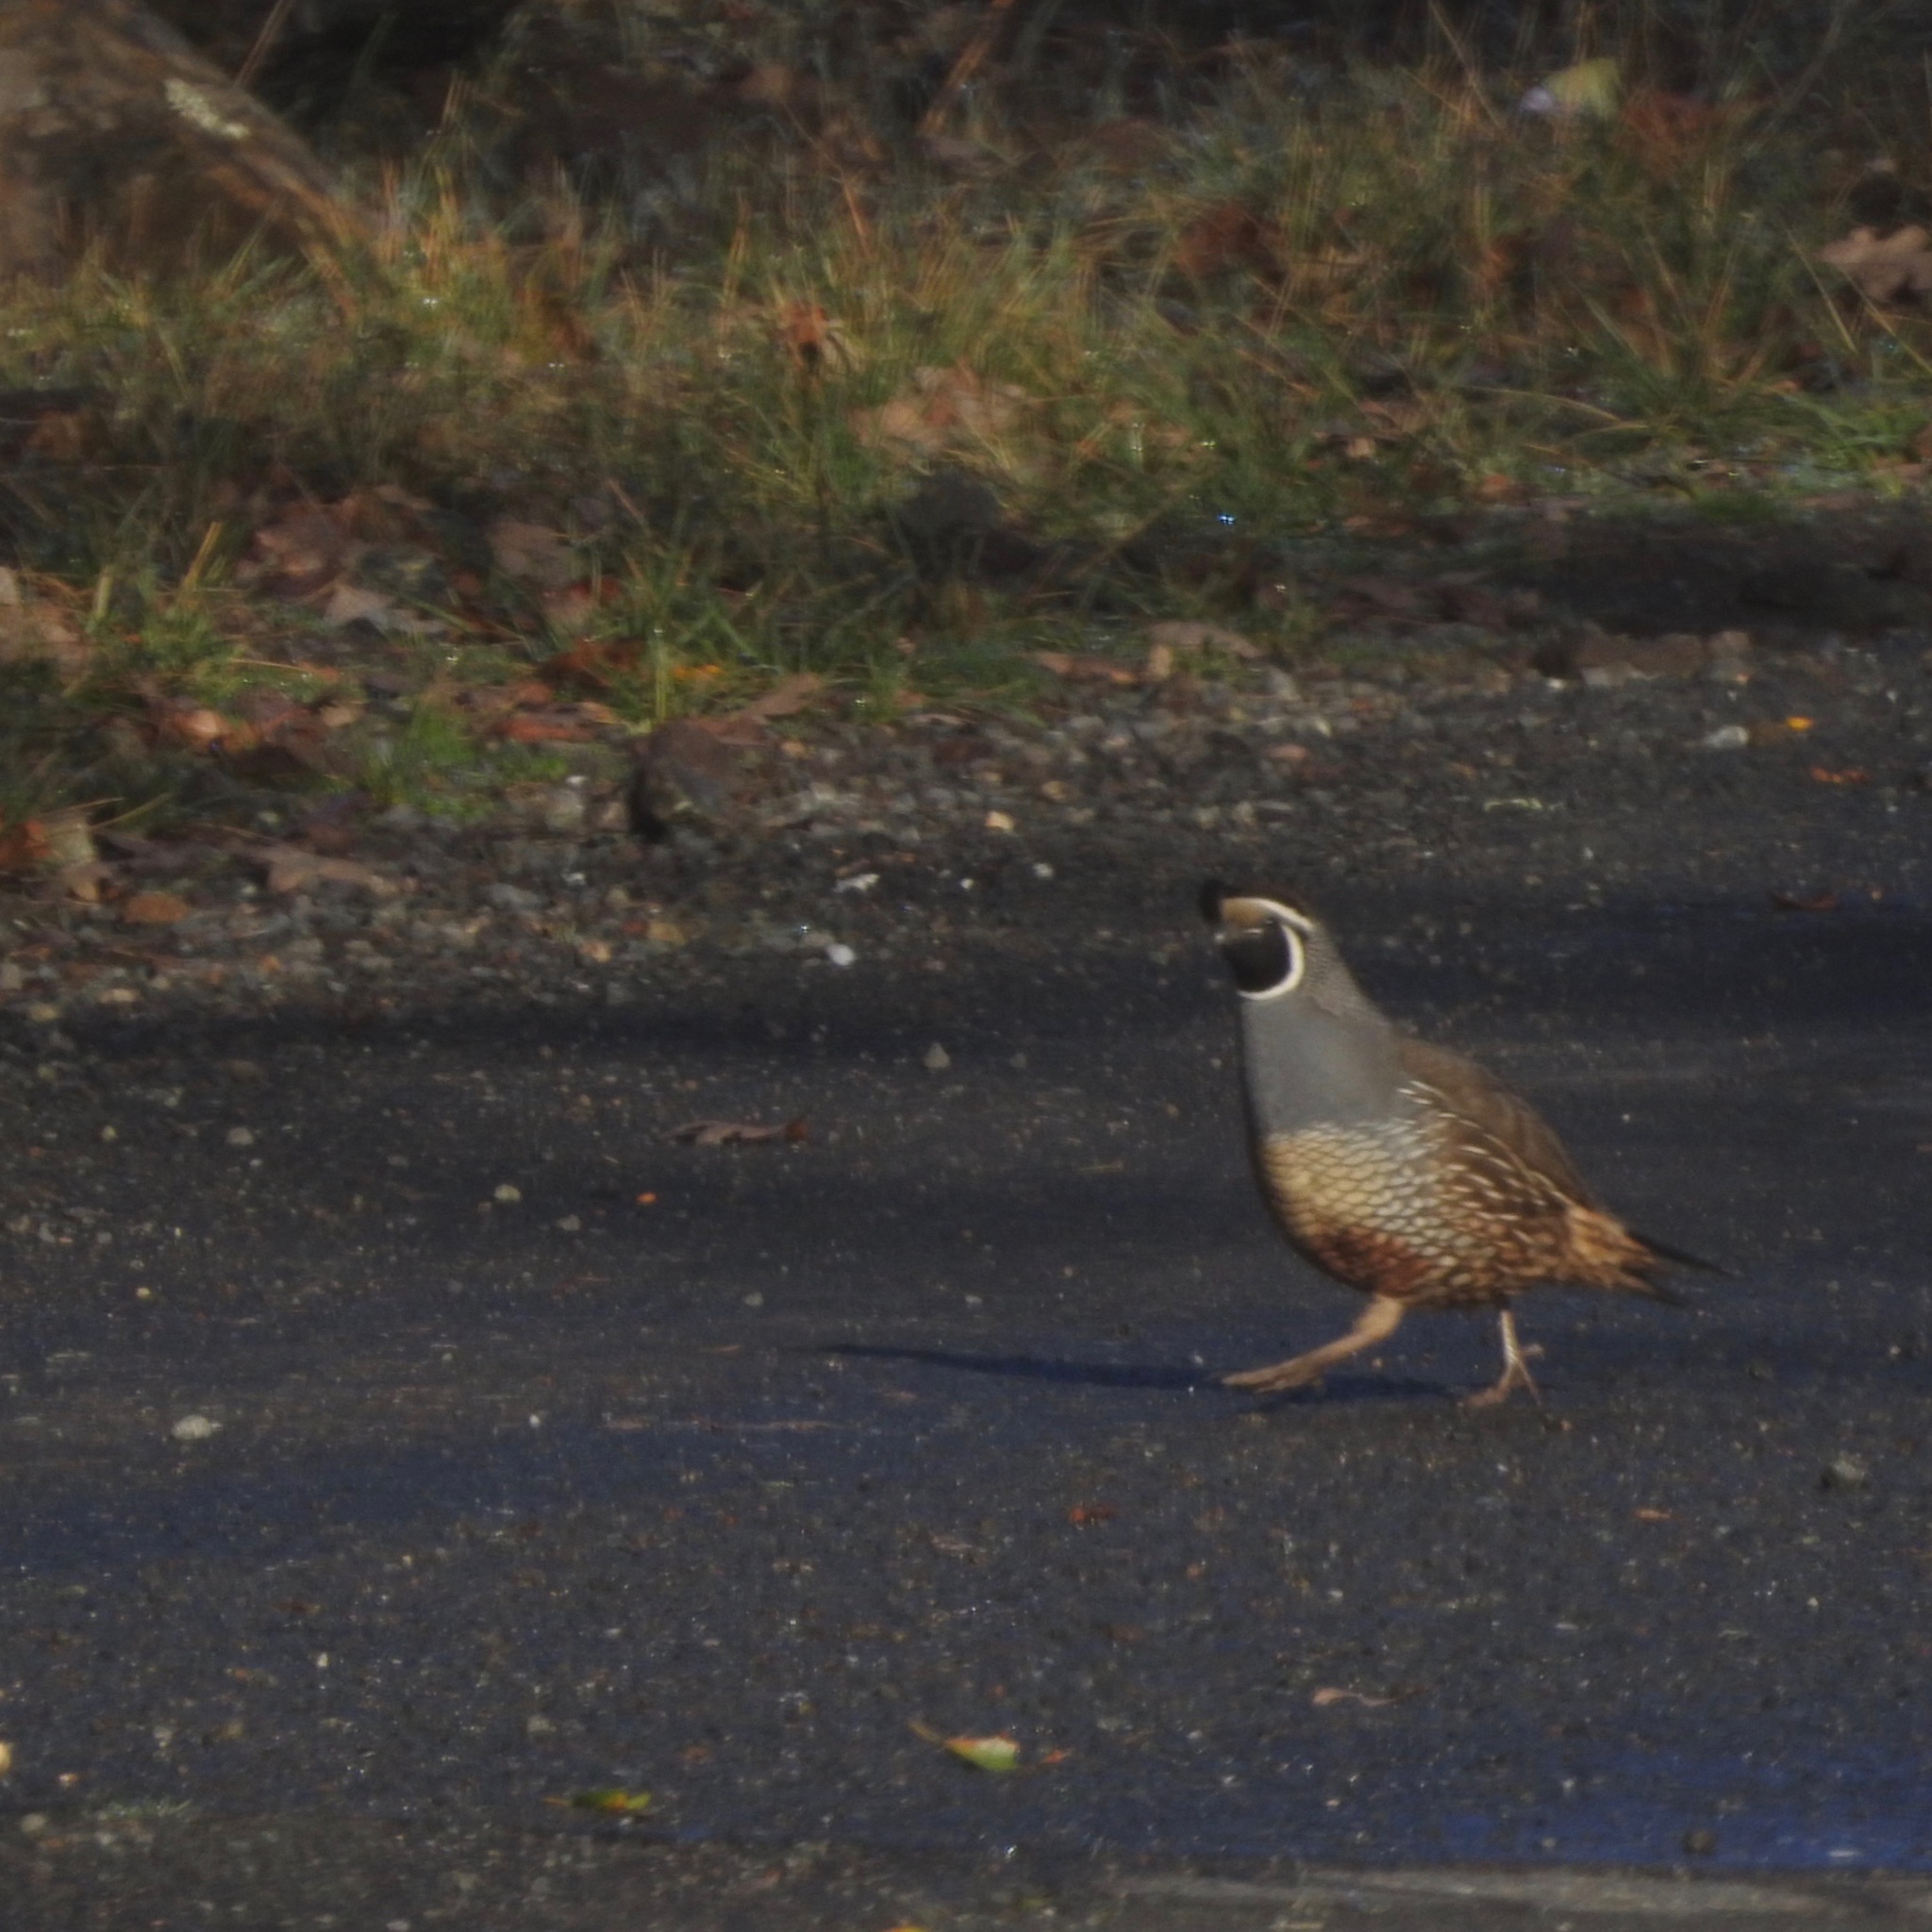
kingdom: Animalia
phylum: Chordata
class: Aves
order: Galliformes
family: Odontophoridae
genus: Callipepla
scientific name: Callipepla californica
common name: California quail
